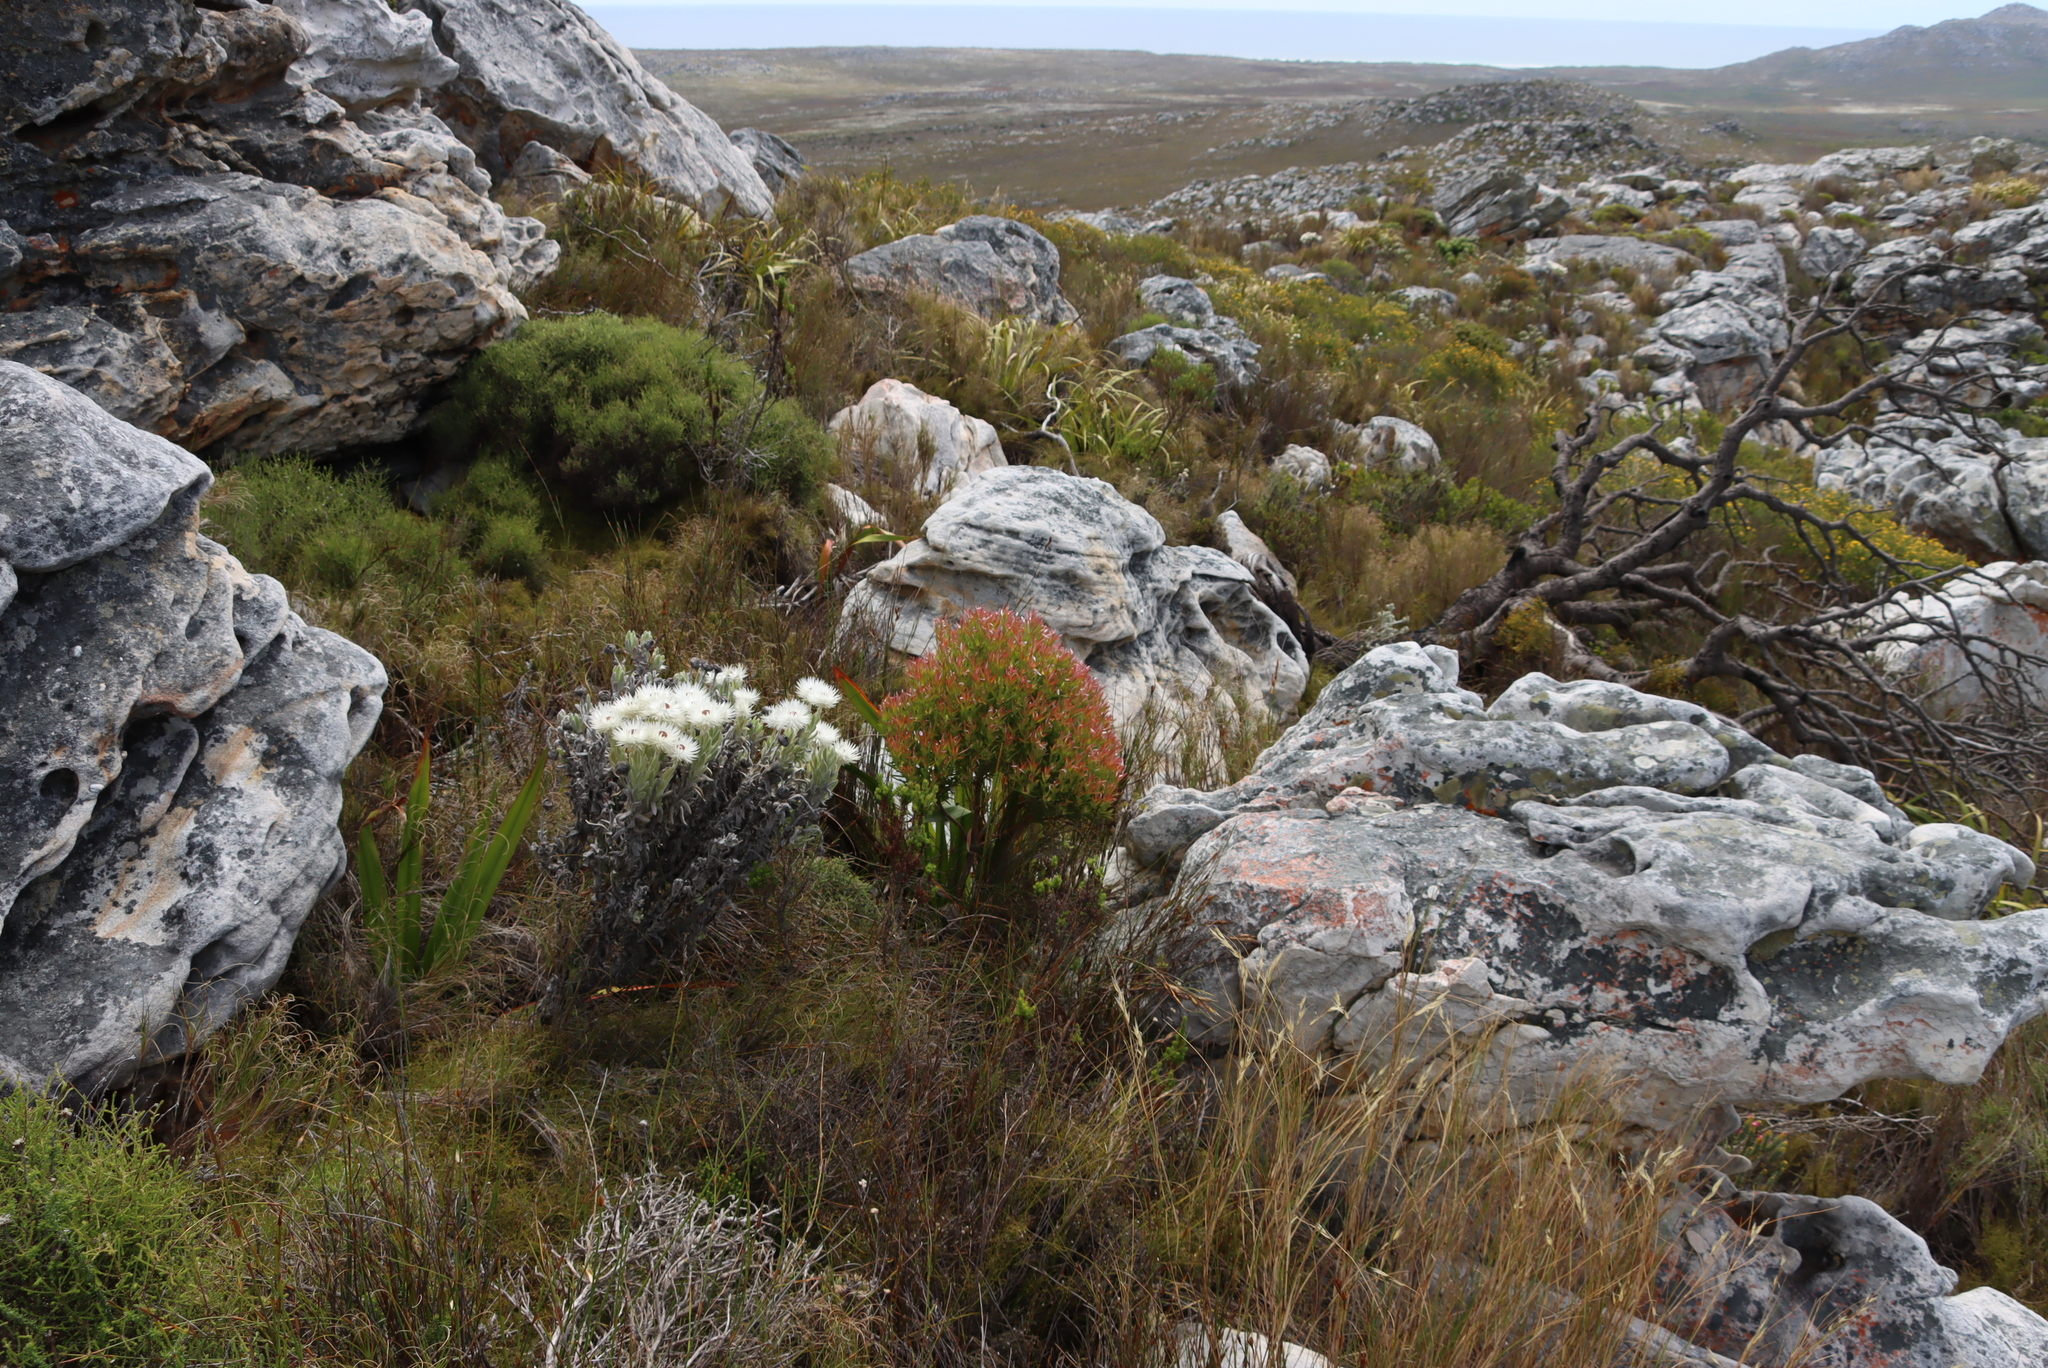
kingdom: Plantae
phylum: Tracheophyta
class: Magnoliopsida
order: Proteales
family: Proteaceae
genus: Leucadendron
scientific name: Leucadendron xanthoconus
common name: Sickle-leaf conebush
